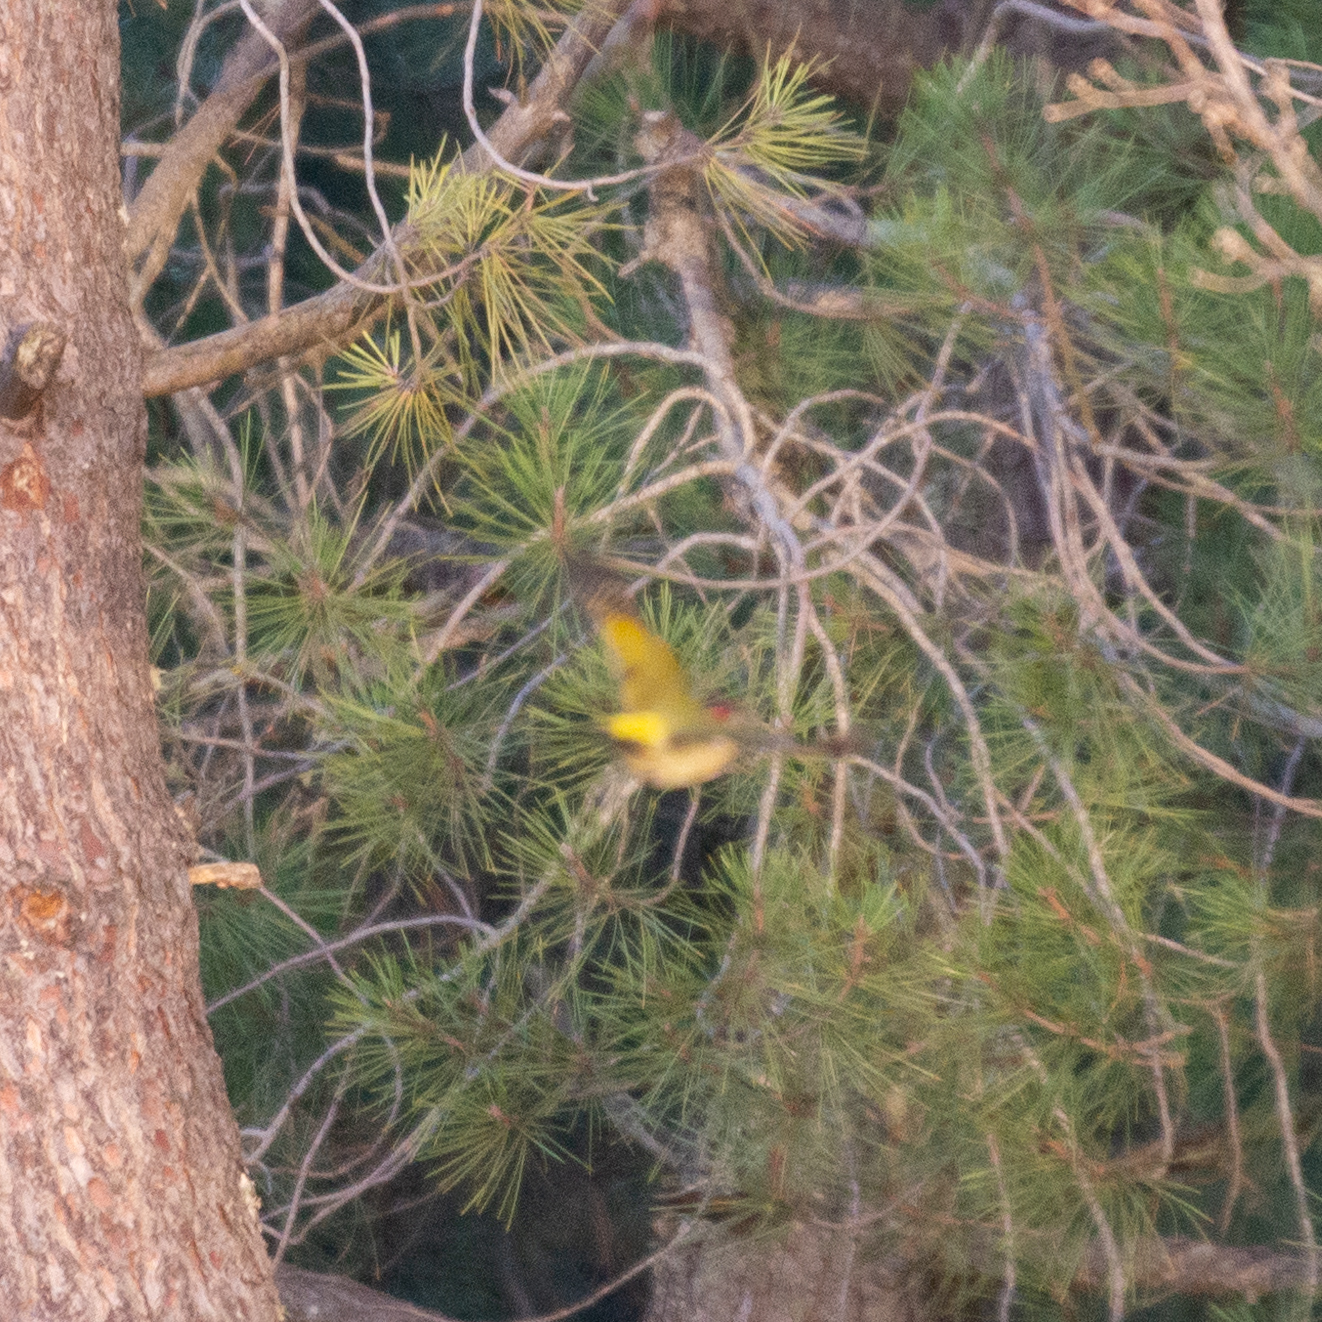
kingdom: Animalia
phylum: Chordata
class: Aves
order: Piciformes
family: Picidae
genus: Picus
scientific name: Picus sharpei
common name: Iberian green woodpecker
